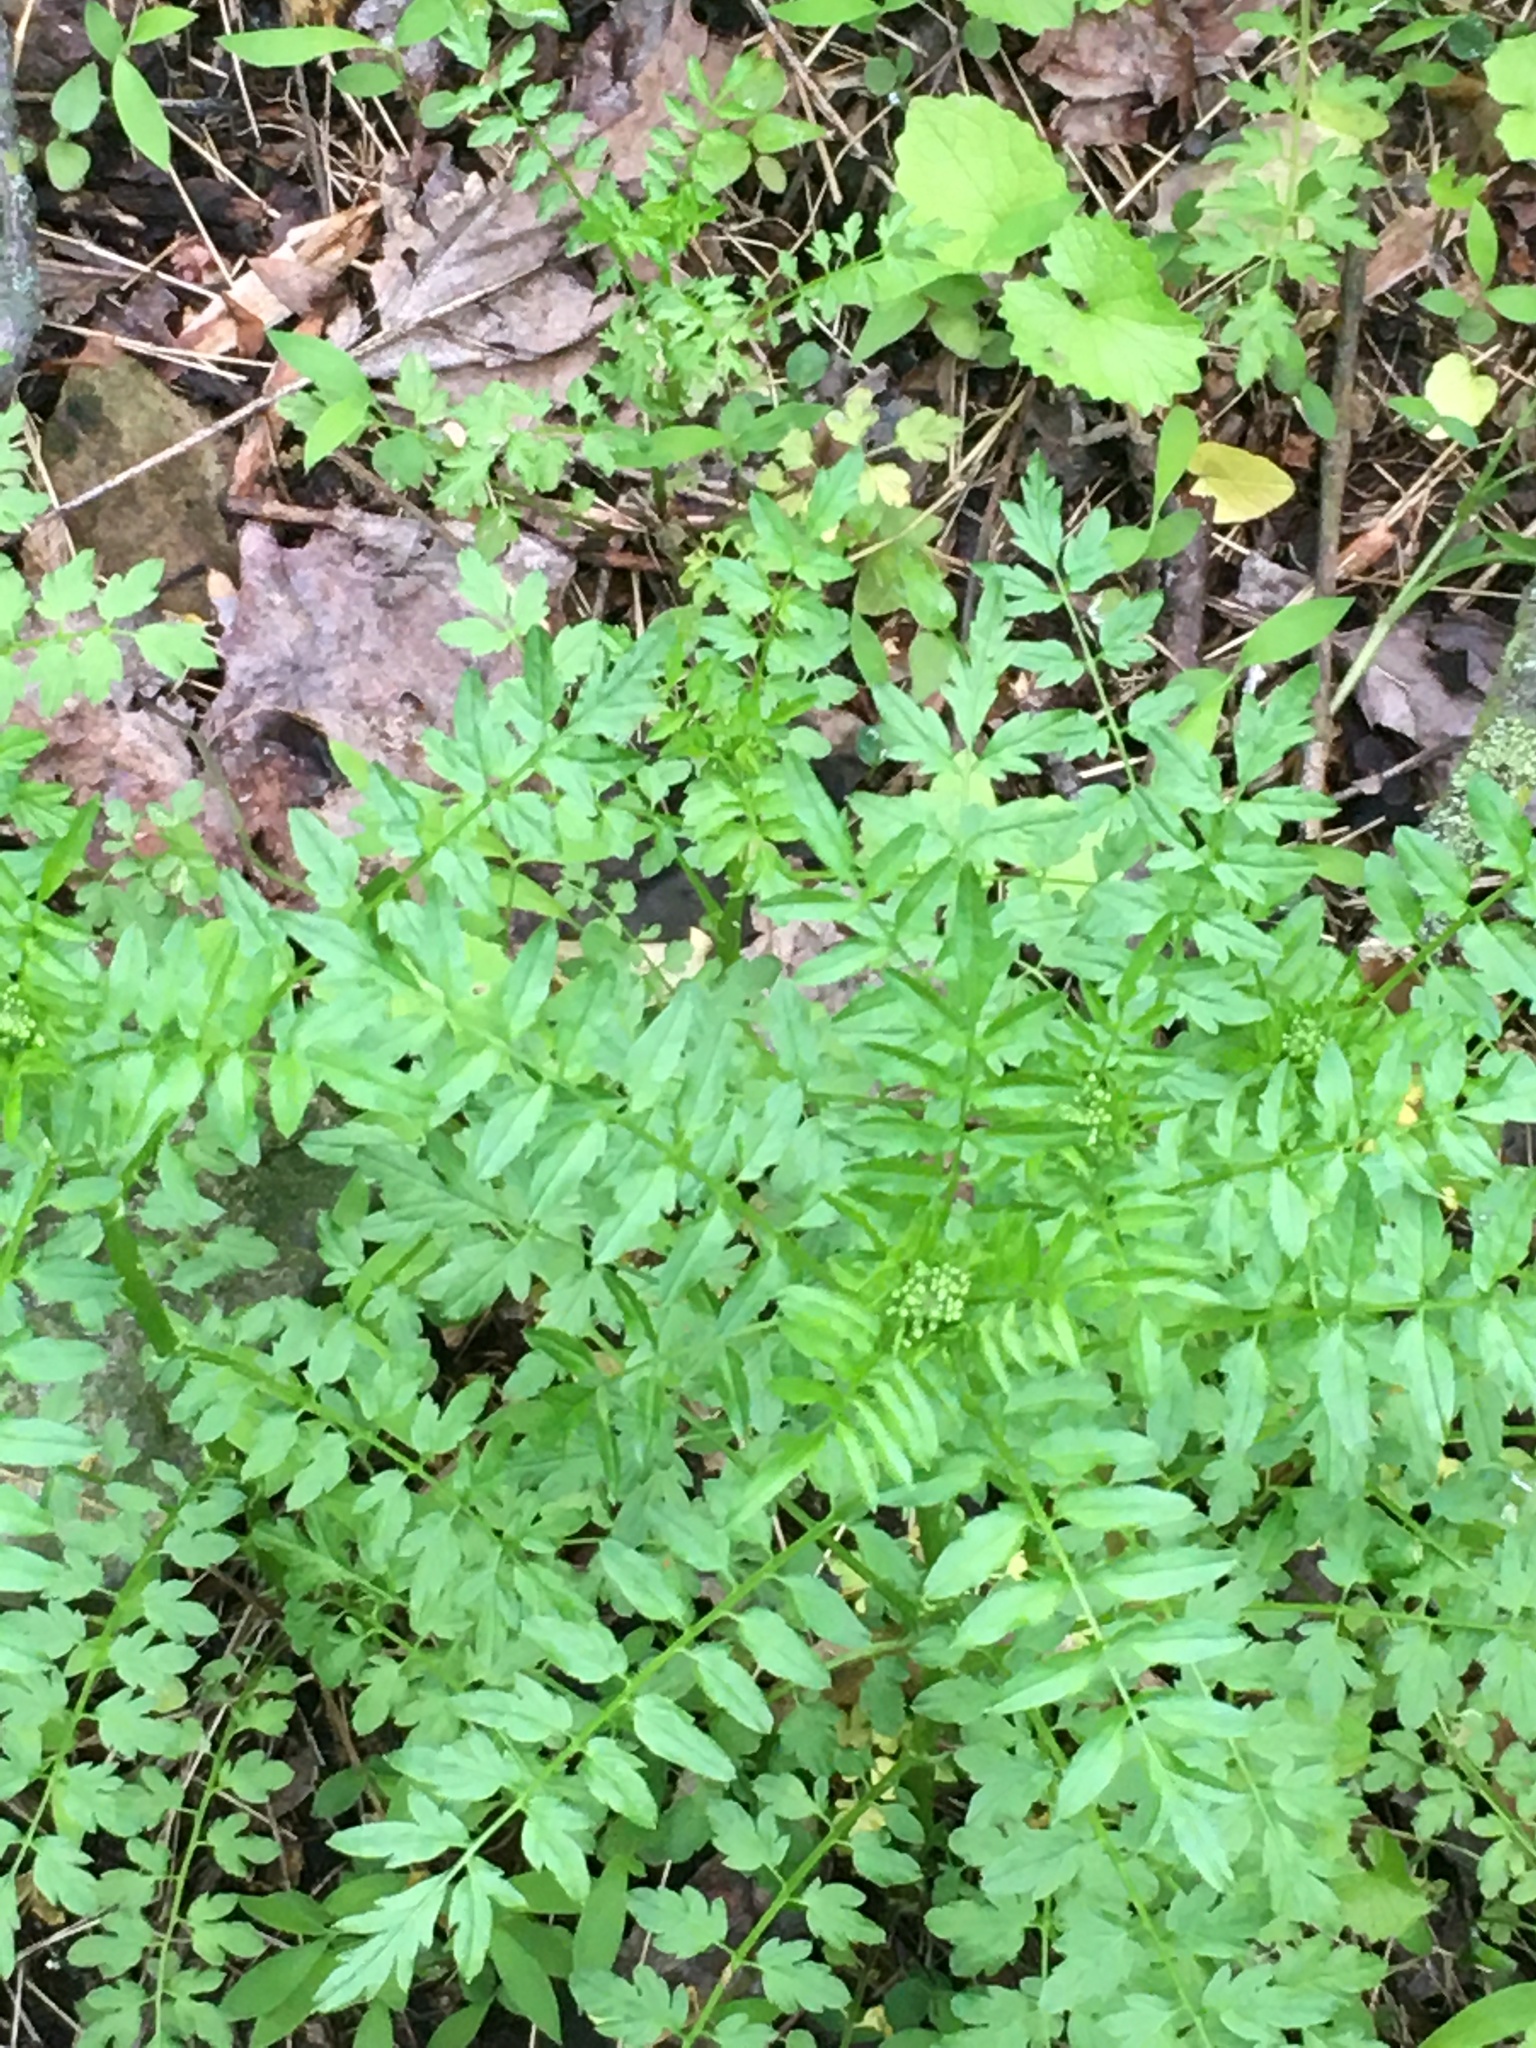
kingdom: Plantae
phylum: Tracheophyta
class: Magnoliopsida
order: Brassicales
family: Brassicaceae
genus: Cardamine
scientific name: Cardamine impatiens
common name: Narrow-leaved bitter-cress
